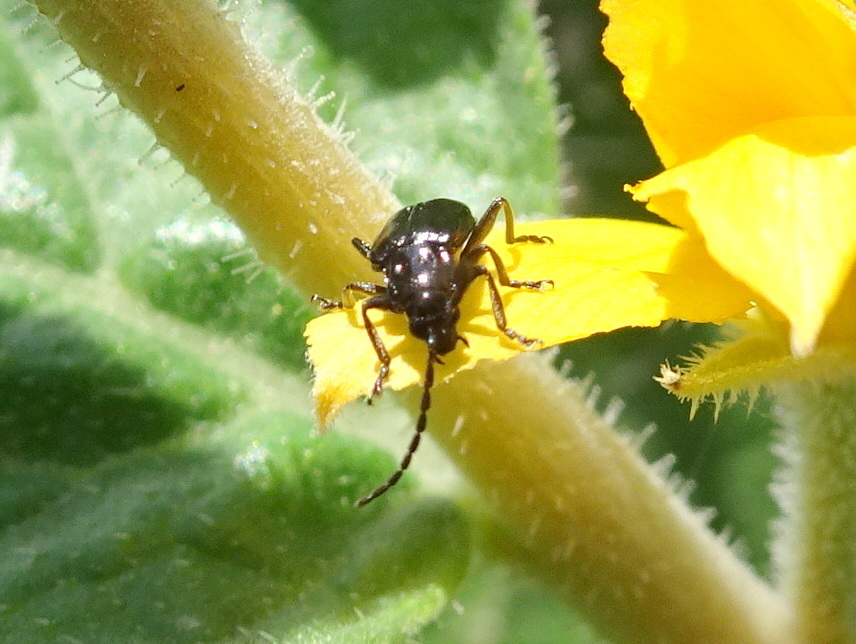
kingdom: Animalia
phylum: Arthropoda
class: Insecta
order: Coleoptera
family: Chrysomelidae
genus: Diabrotica
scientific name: Diabrotica cristata
